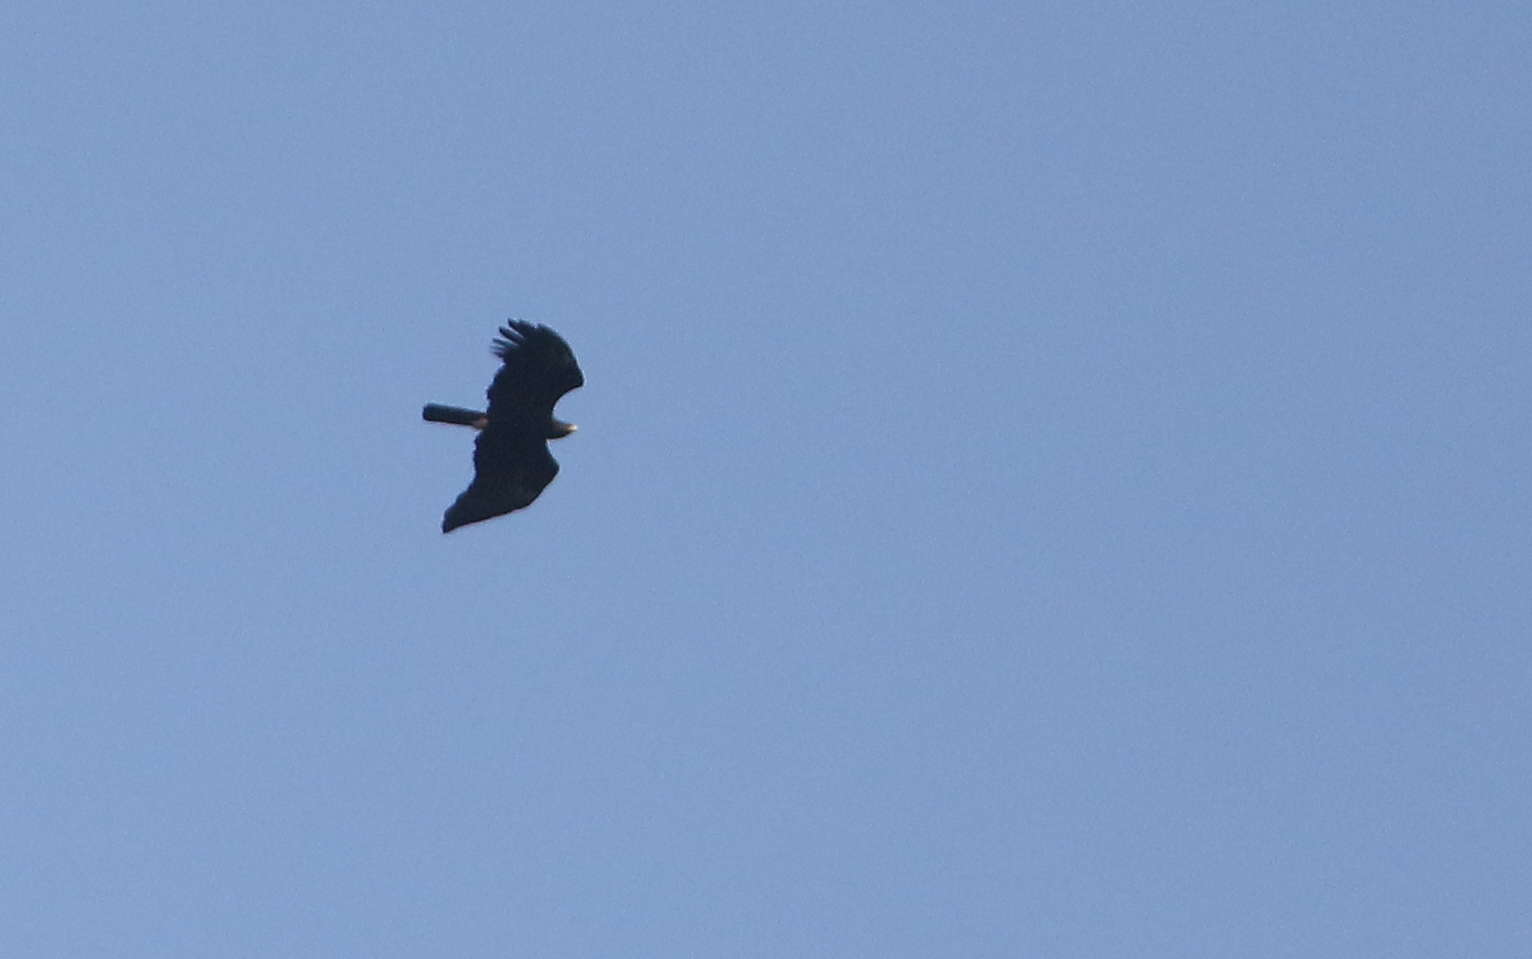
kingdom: Animalia
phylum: Chordata
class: Aves
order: Accipitriformes
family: Accipitridae
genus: Ictinaetus
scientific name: Ictinaetus malayensis
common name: Black eagle
